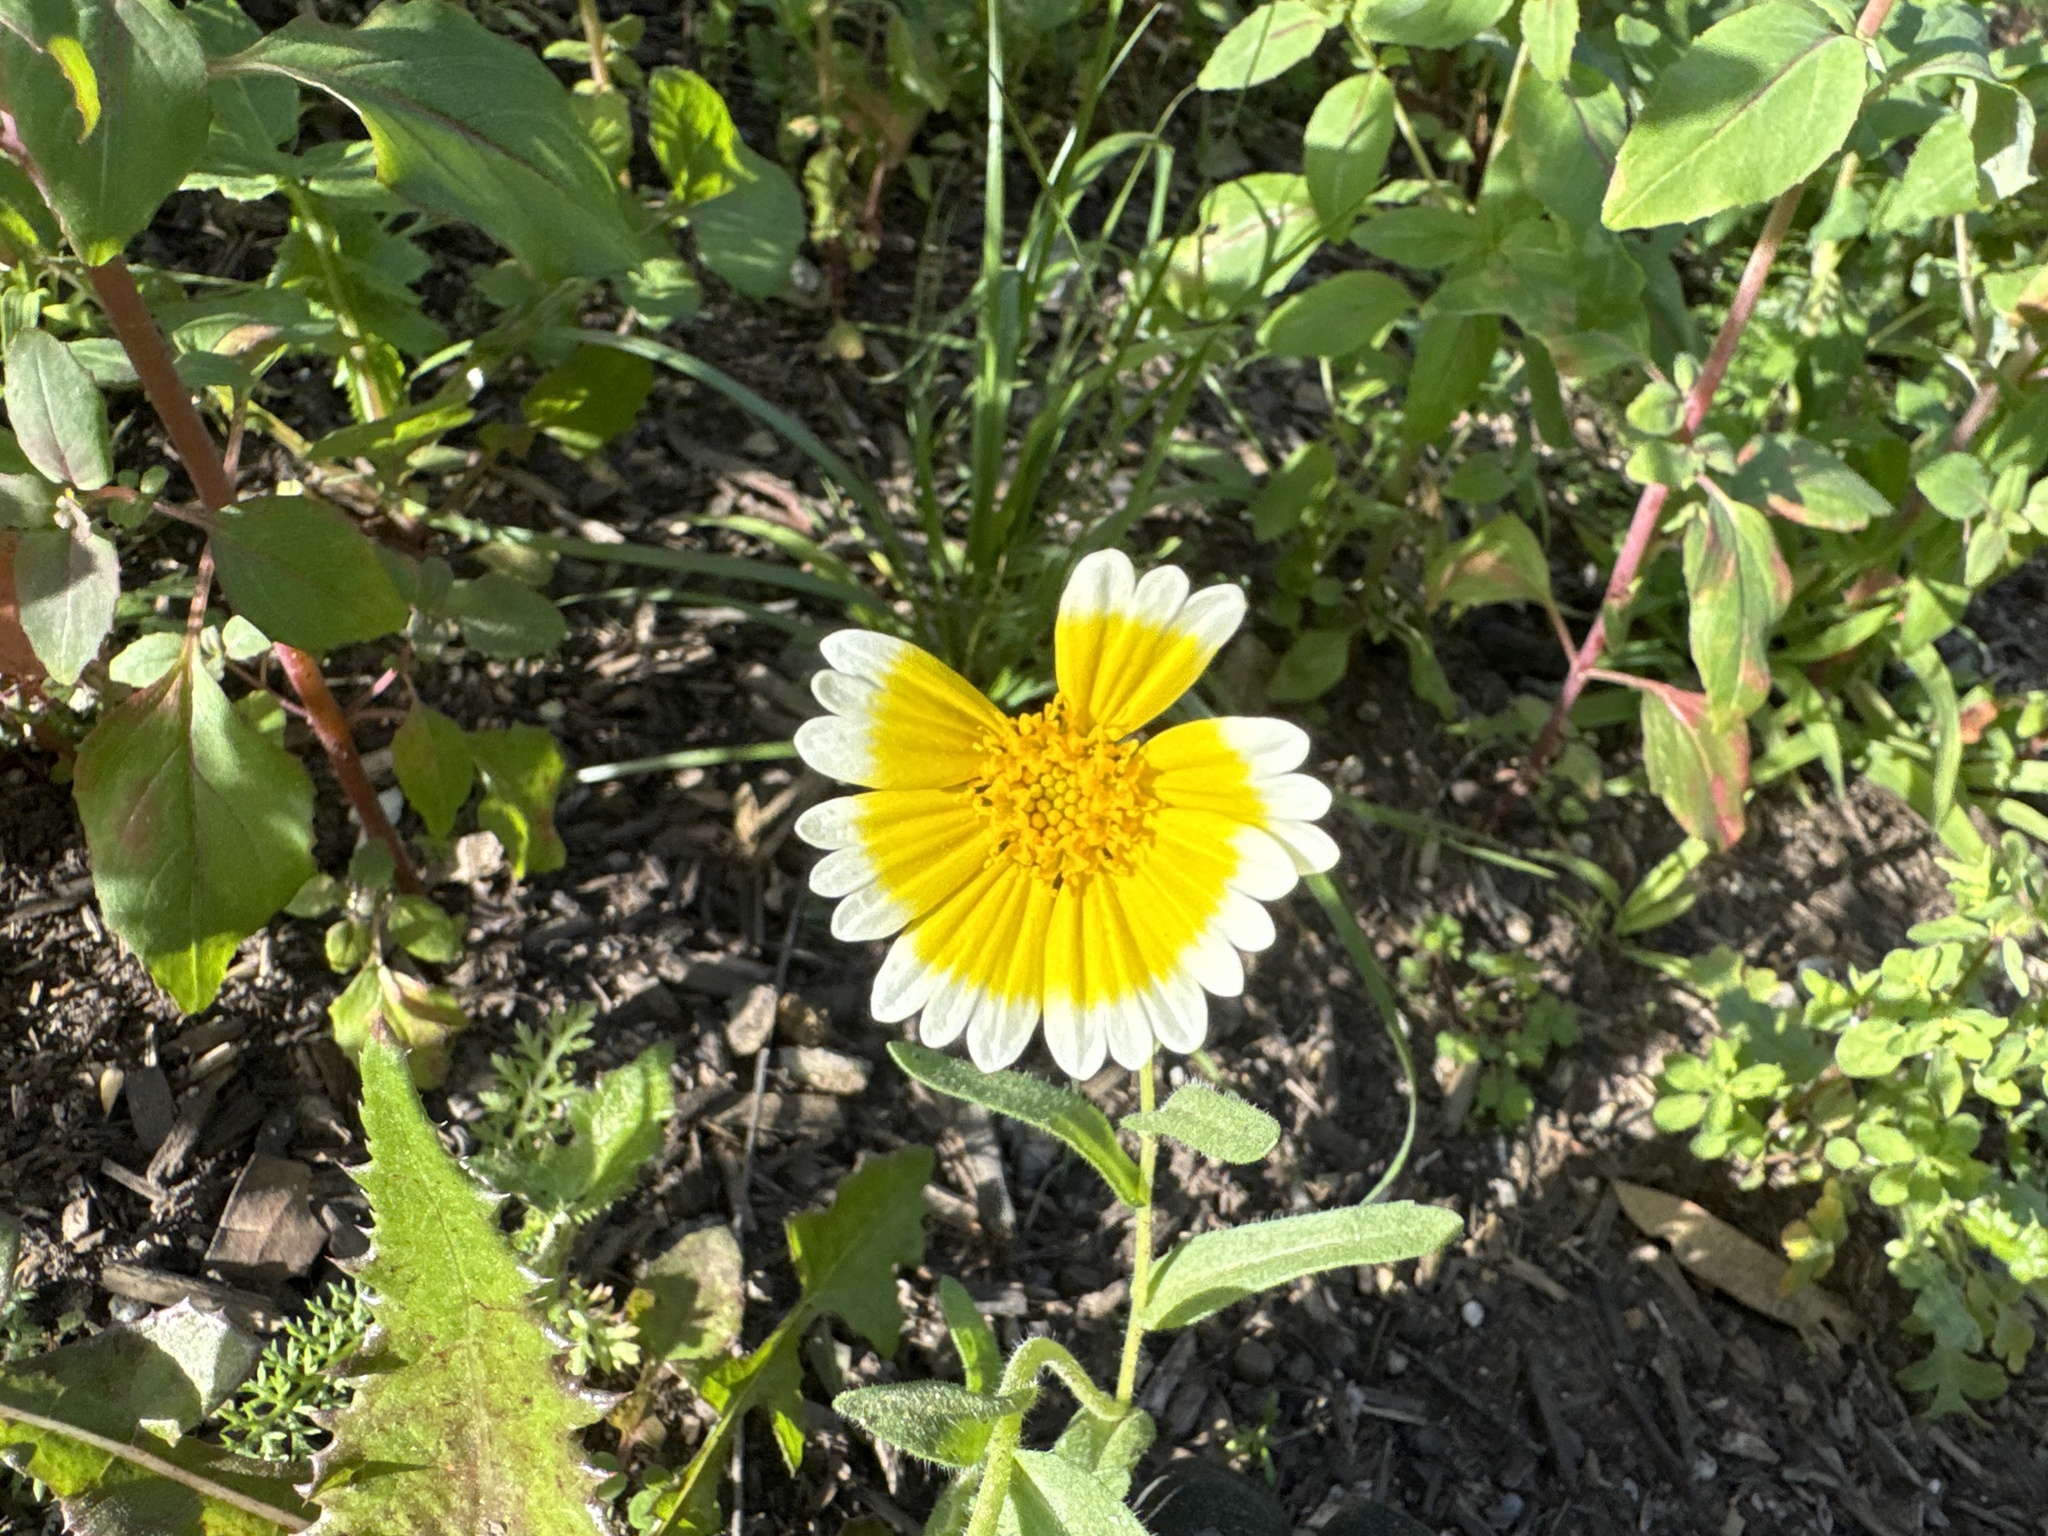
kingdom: Plantae
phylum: Tracheophyta
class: Magnoliopsida
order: Asterales
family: Asteraceae
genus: Layia
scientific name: Layia platyglossa
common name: Tidy-tips
